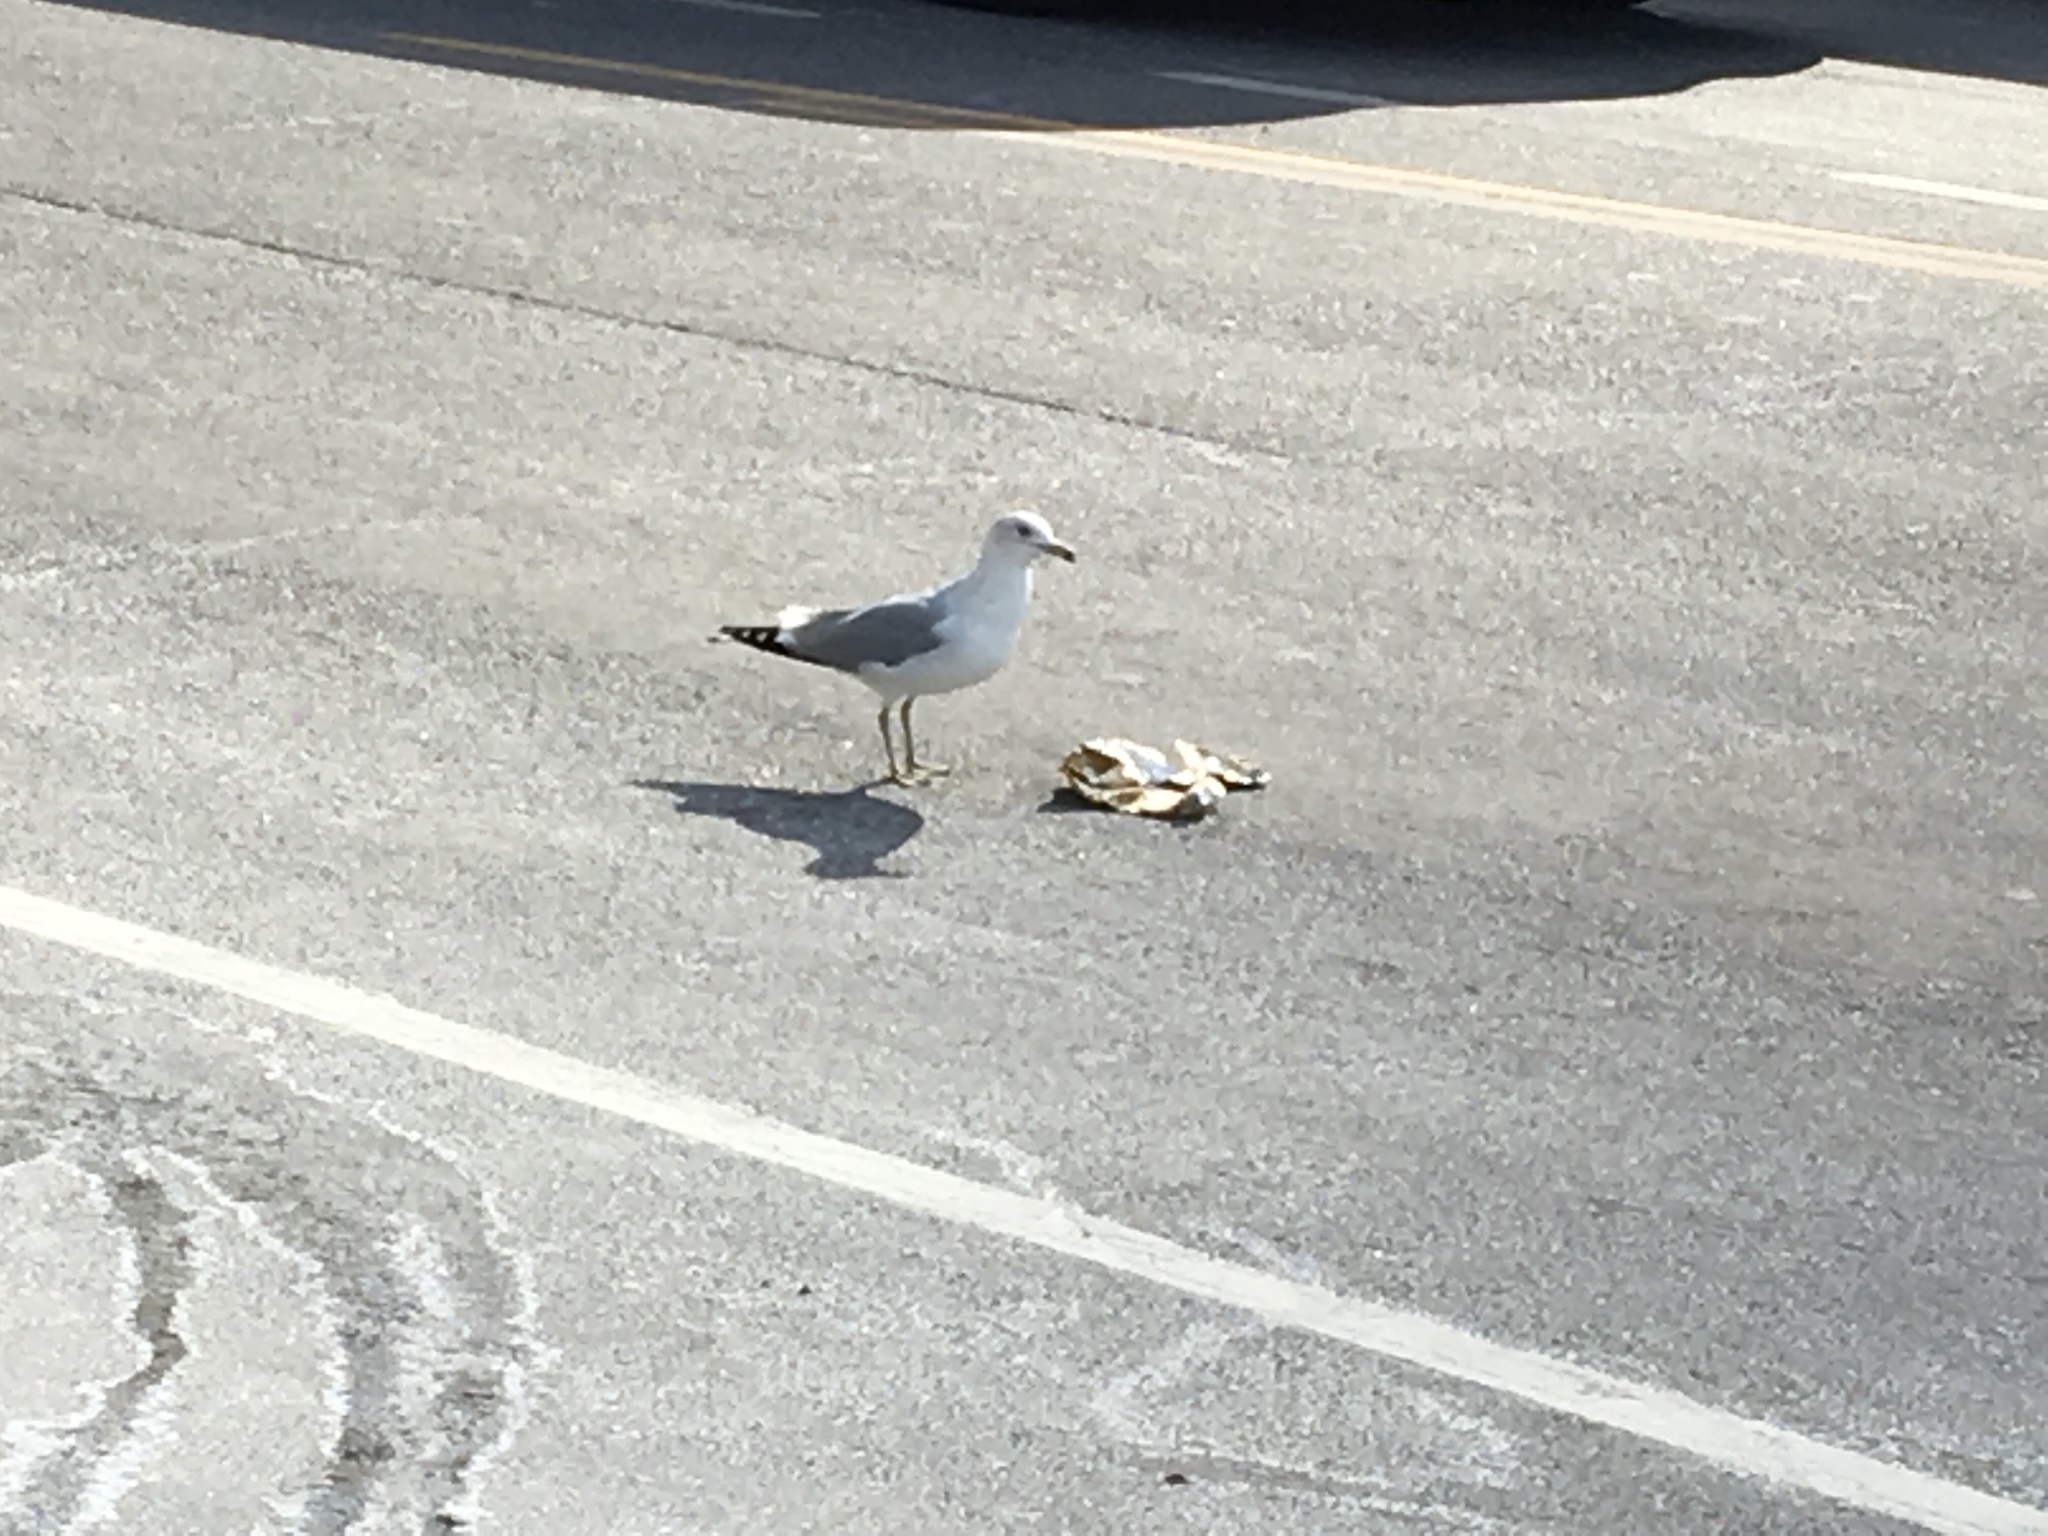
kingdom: Animalia
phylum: Chordata
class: Aves
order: Charadriiformes
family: Laridae
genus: Larus
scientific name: Larus delawarensis
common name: Ring-billed gull
